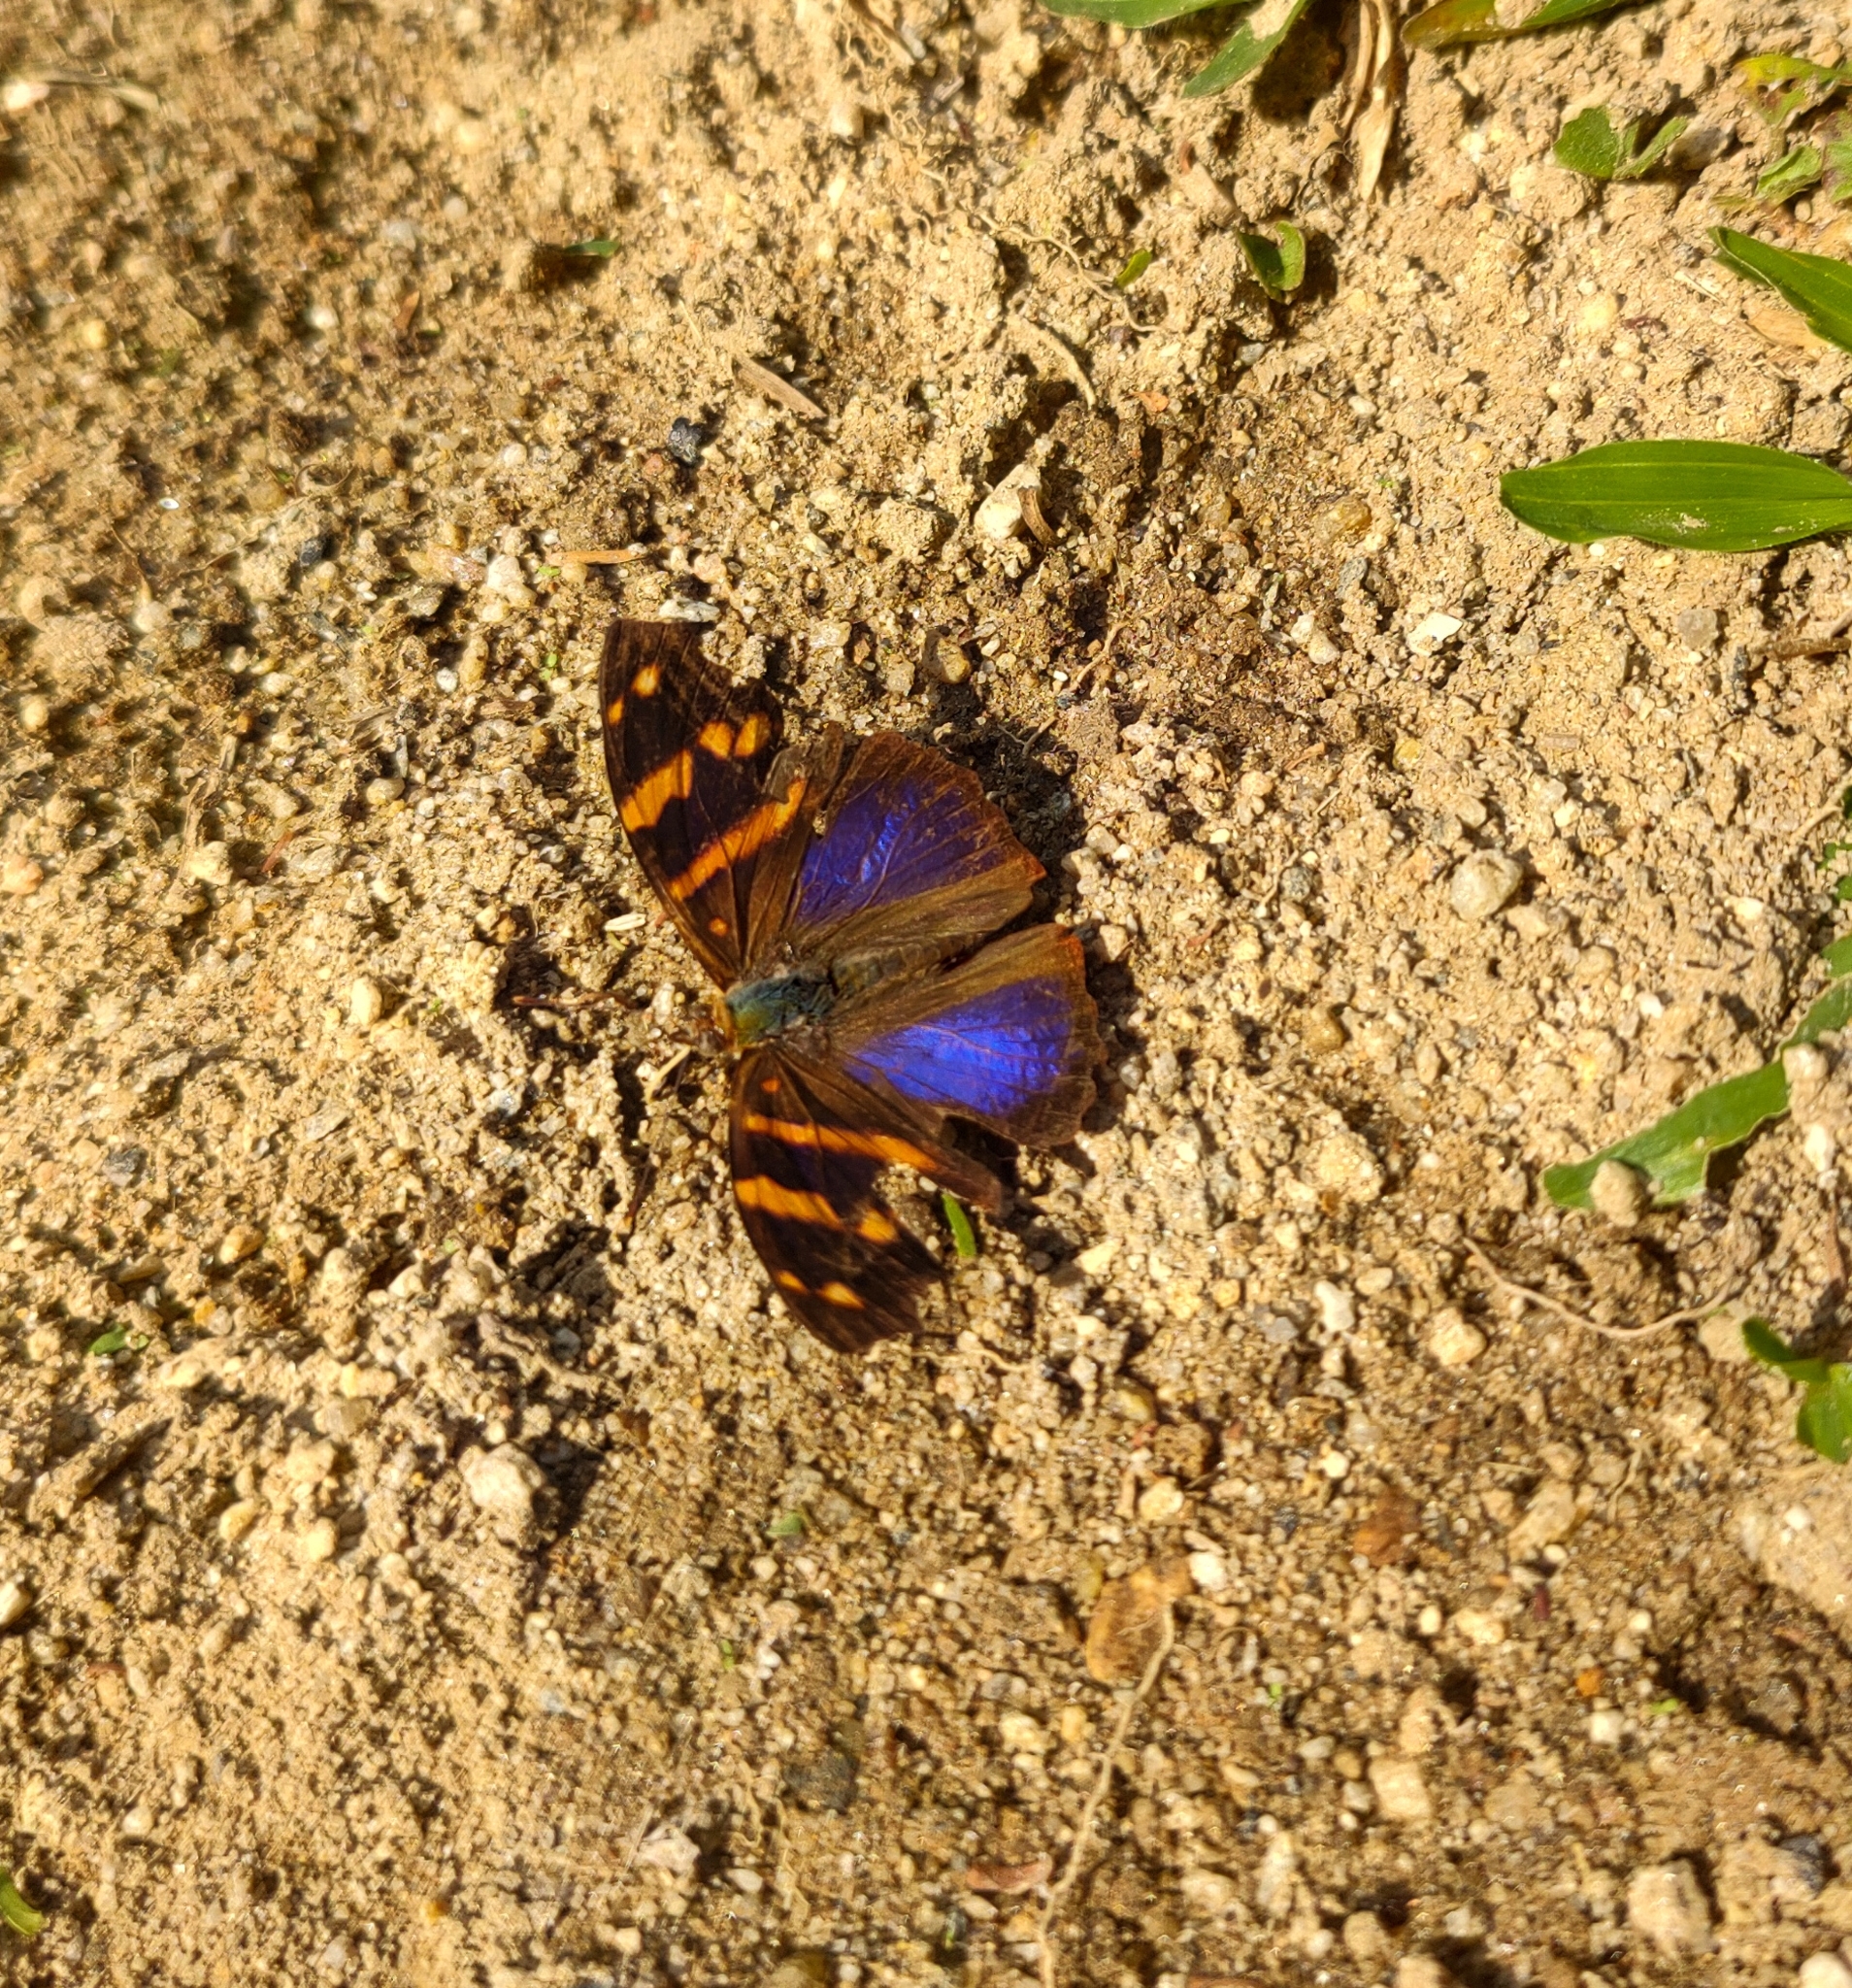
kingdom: Animalia
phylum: Arthropoda
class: Insecta
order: Lepidoptera
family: Nymphalidae
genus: Epiphile
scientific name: Epiphile orea
